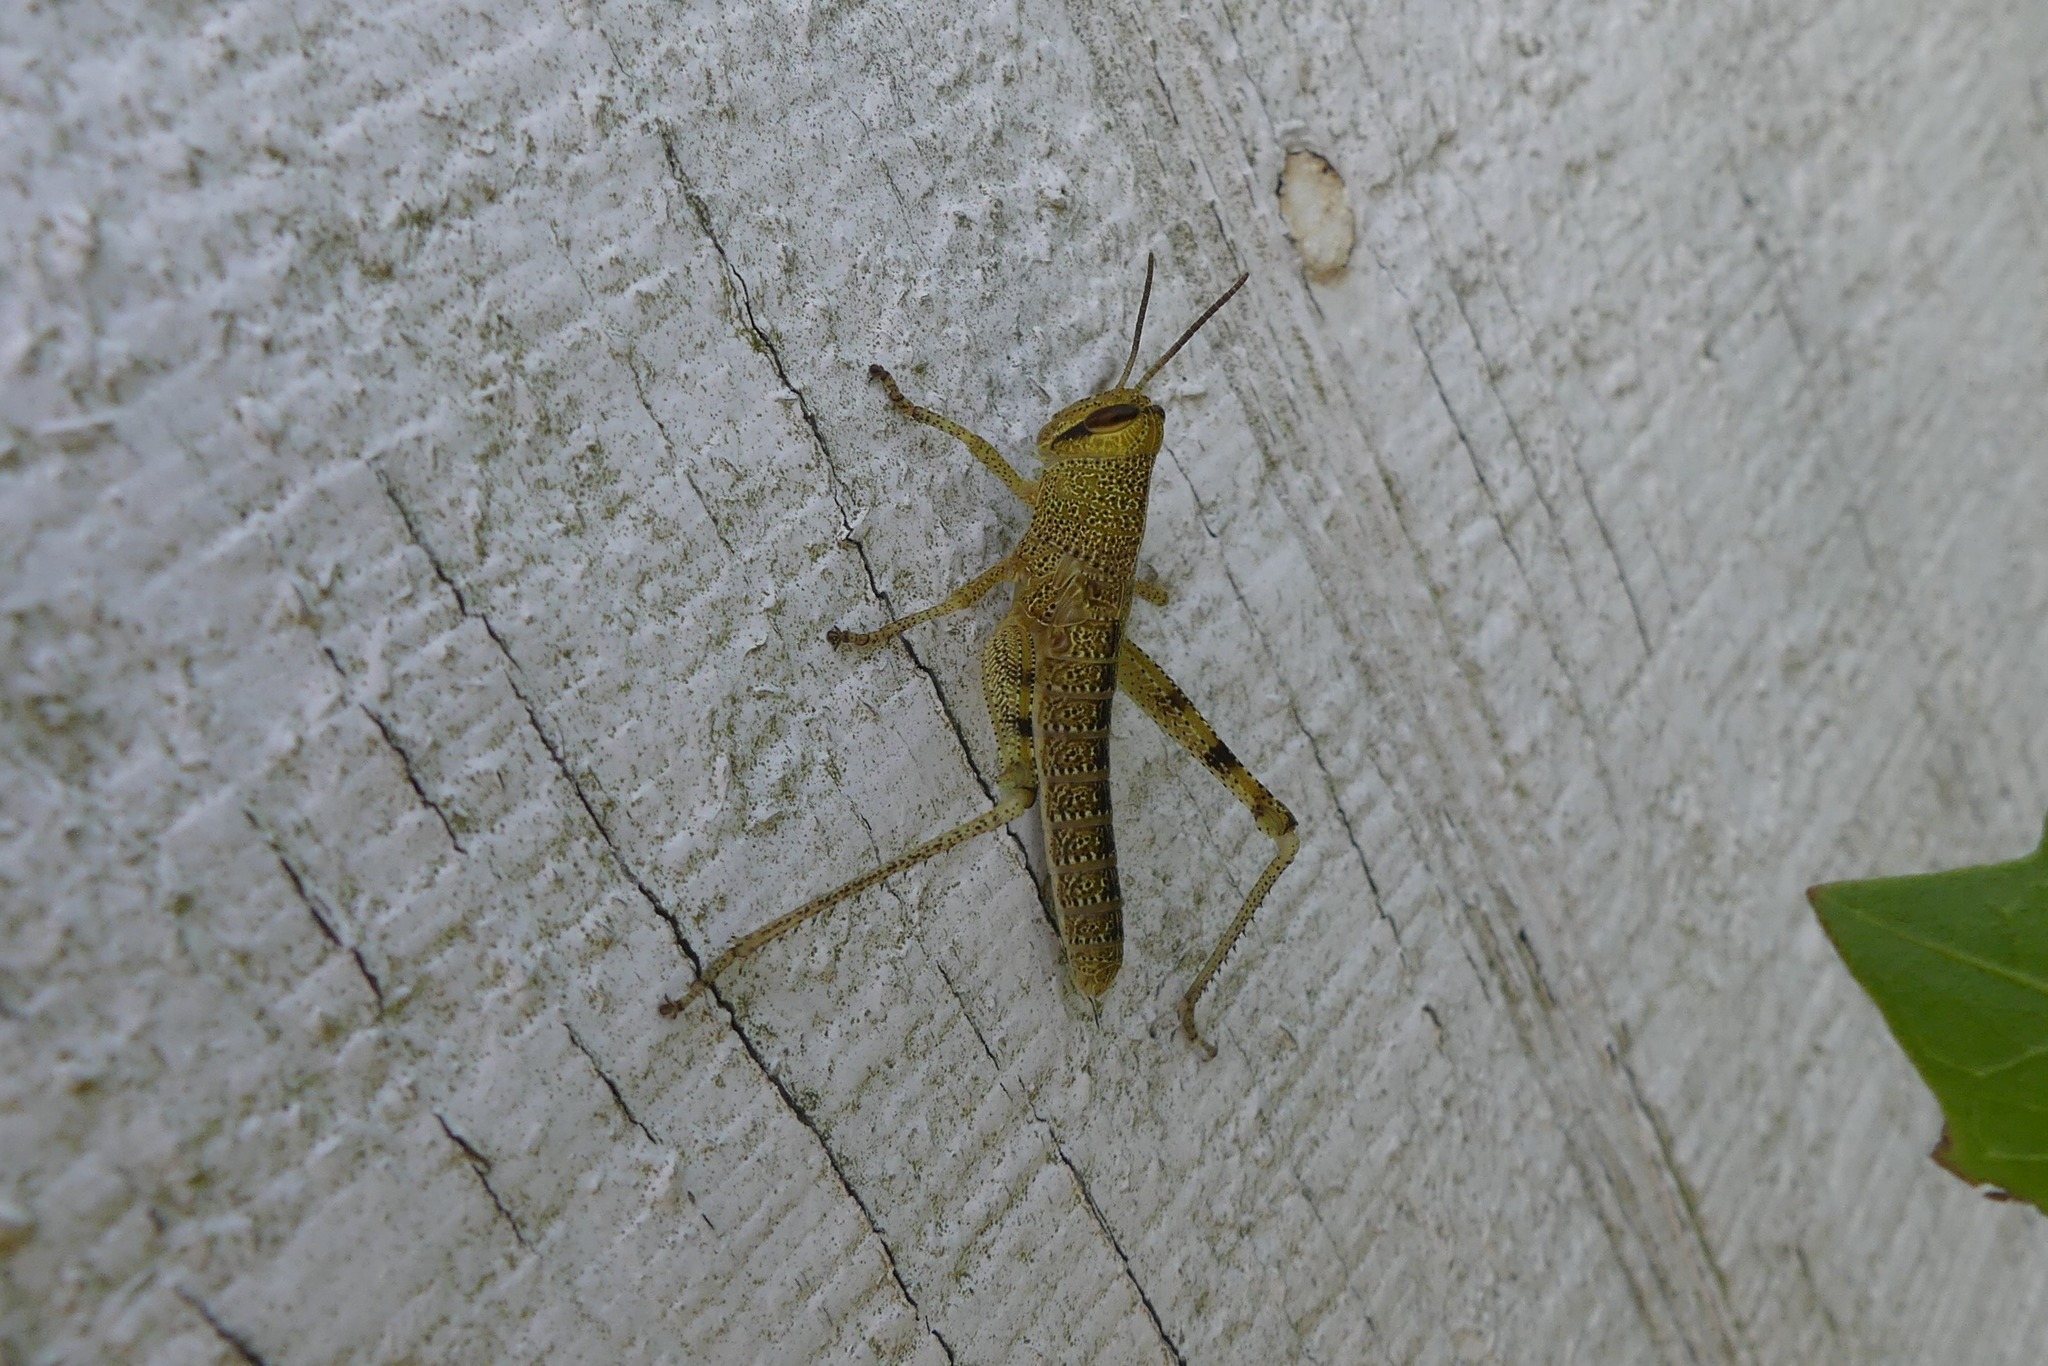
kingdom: Animalia
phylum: Arthropoda
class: Insecta
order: Orthoptera
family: Acrididae
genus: Schistocerca
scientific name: Schistocerca obscura
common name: Obscure bird grasshopper
